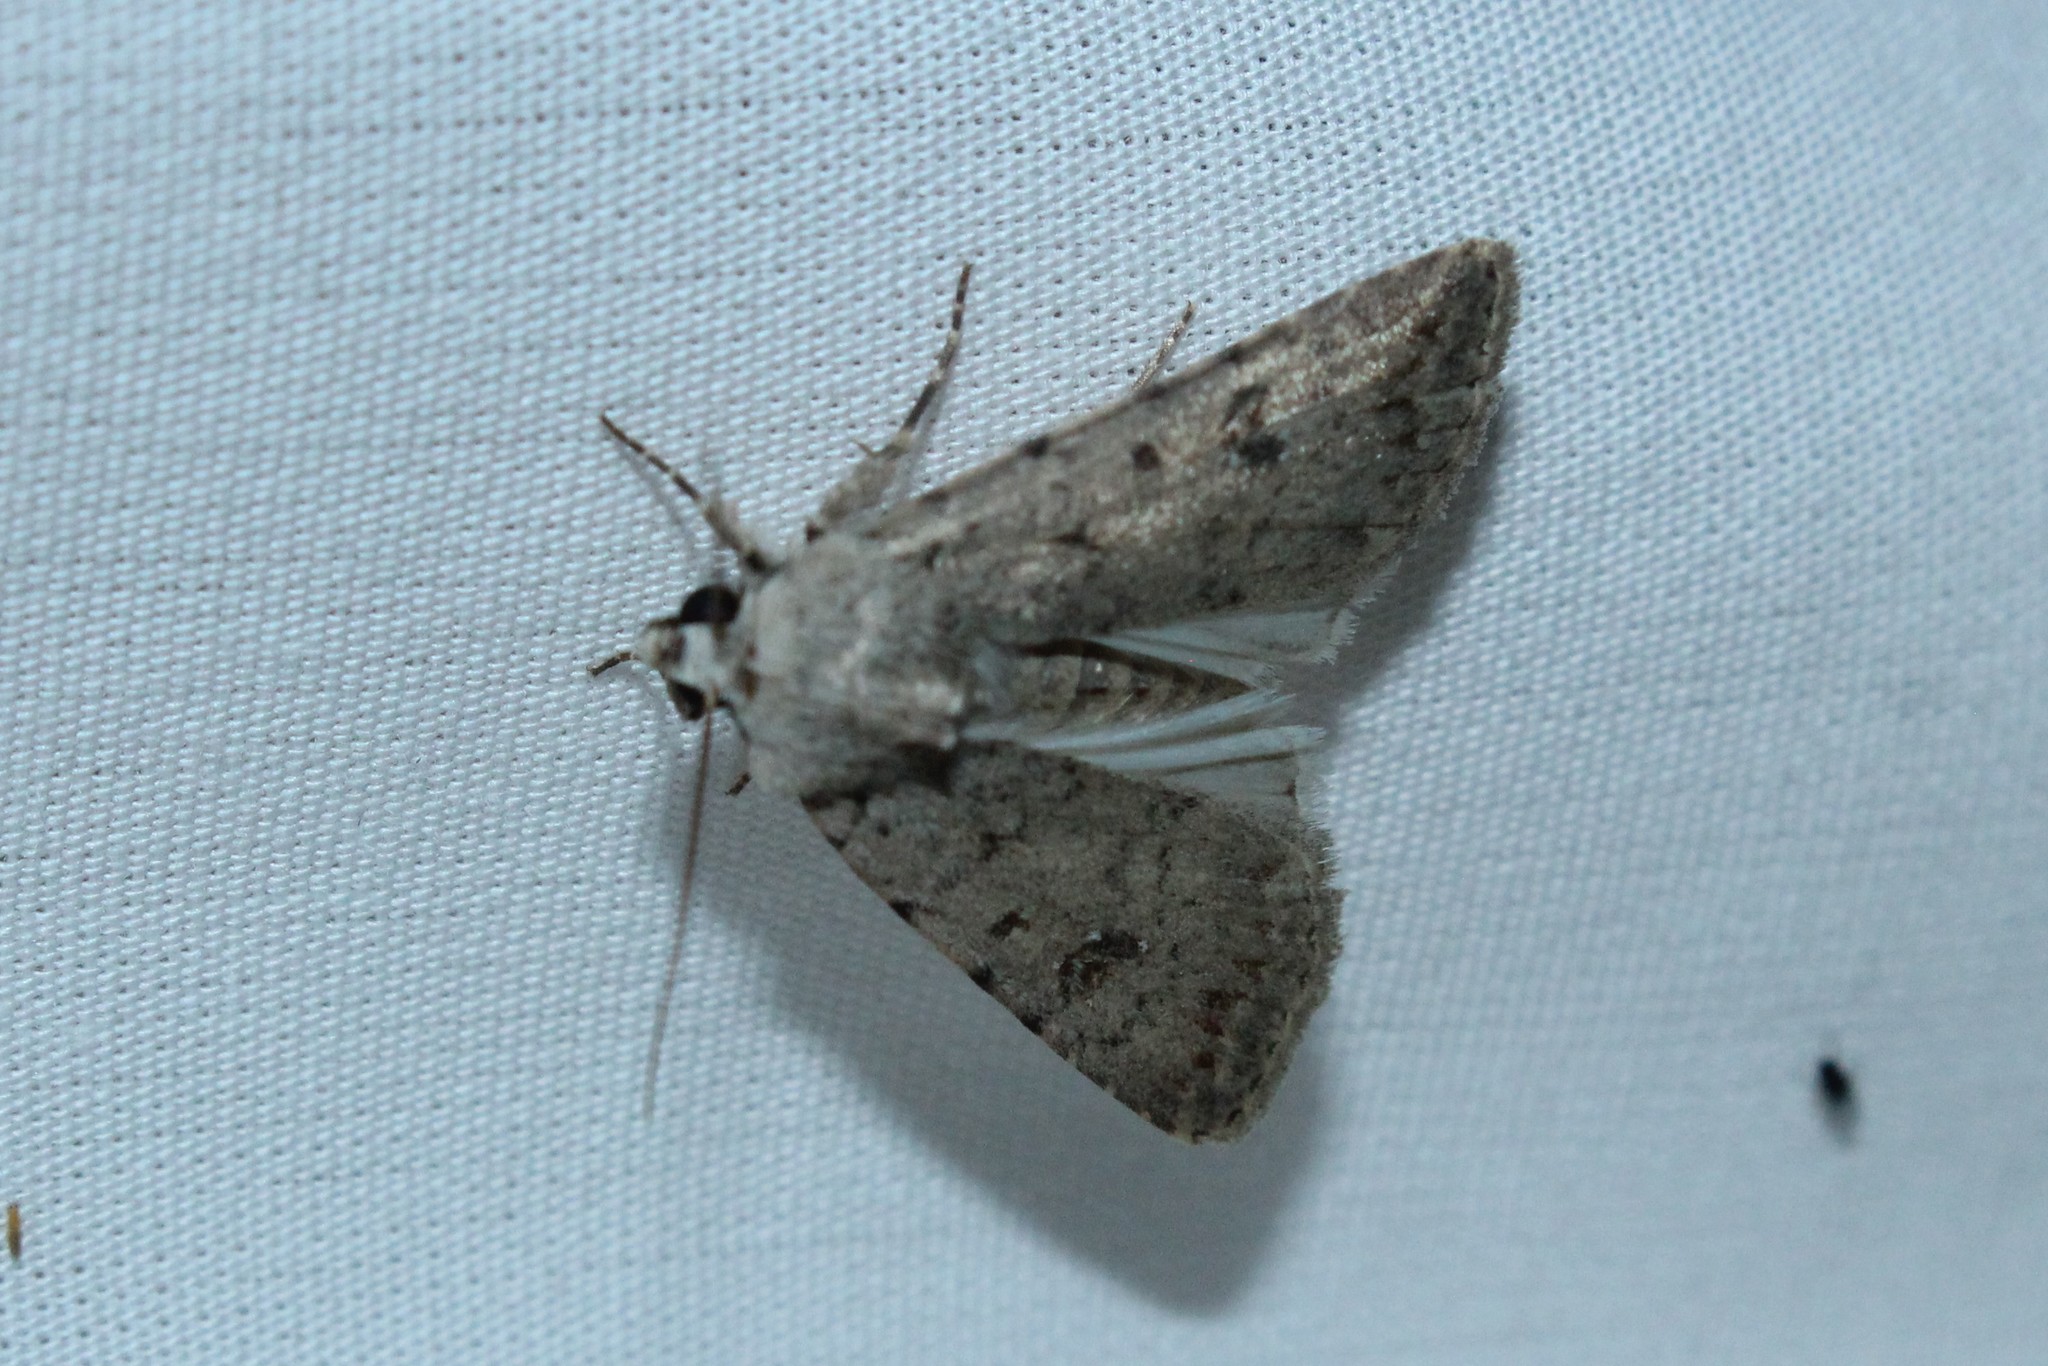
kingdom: Animalia
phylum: Arthropoda
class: Insecta
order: Lepidoptera
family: Noctuidae
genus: Caradrina
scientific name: Caradrina montana
